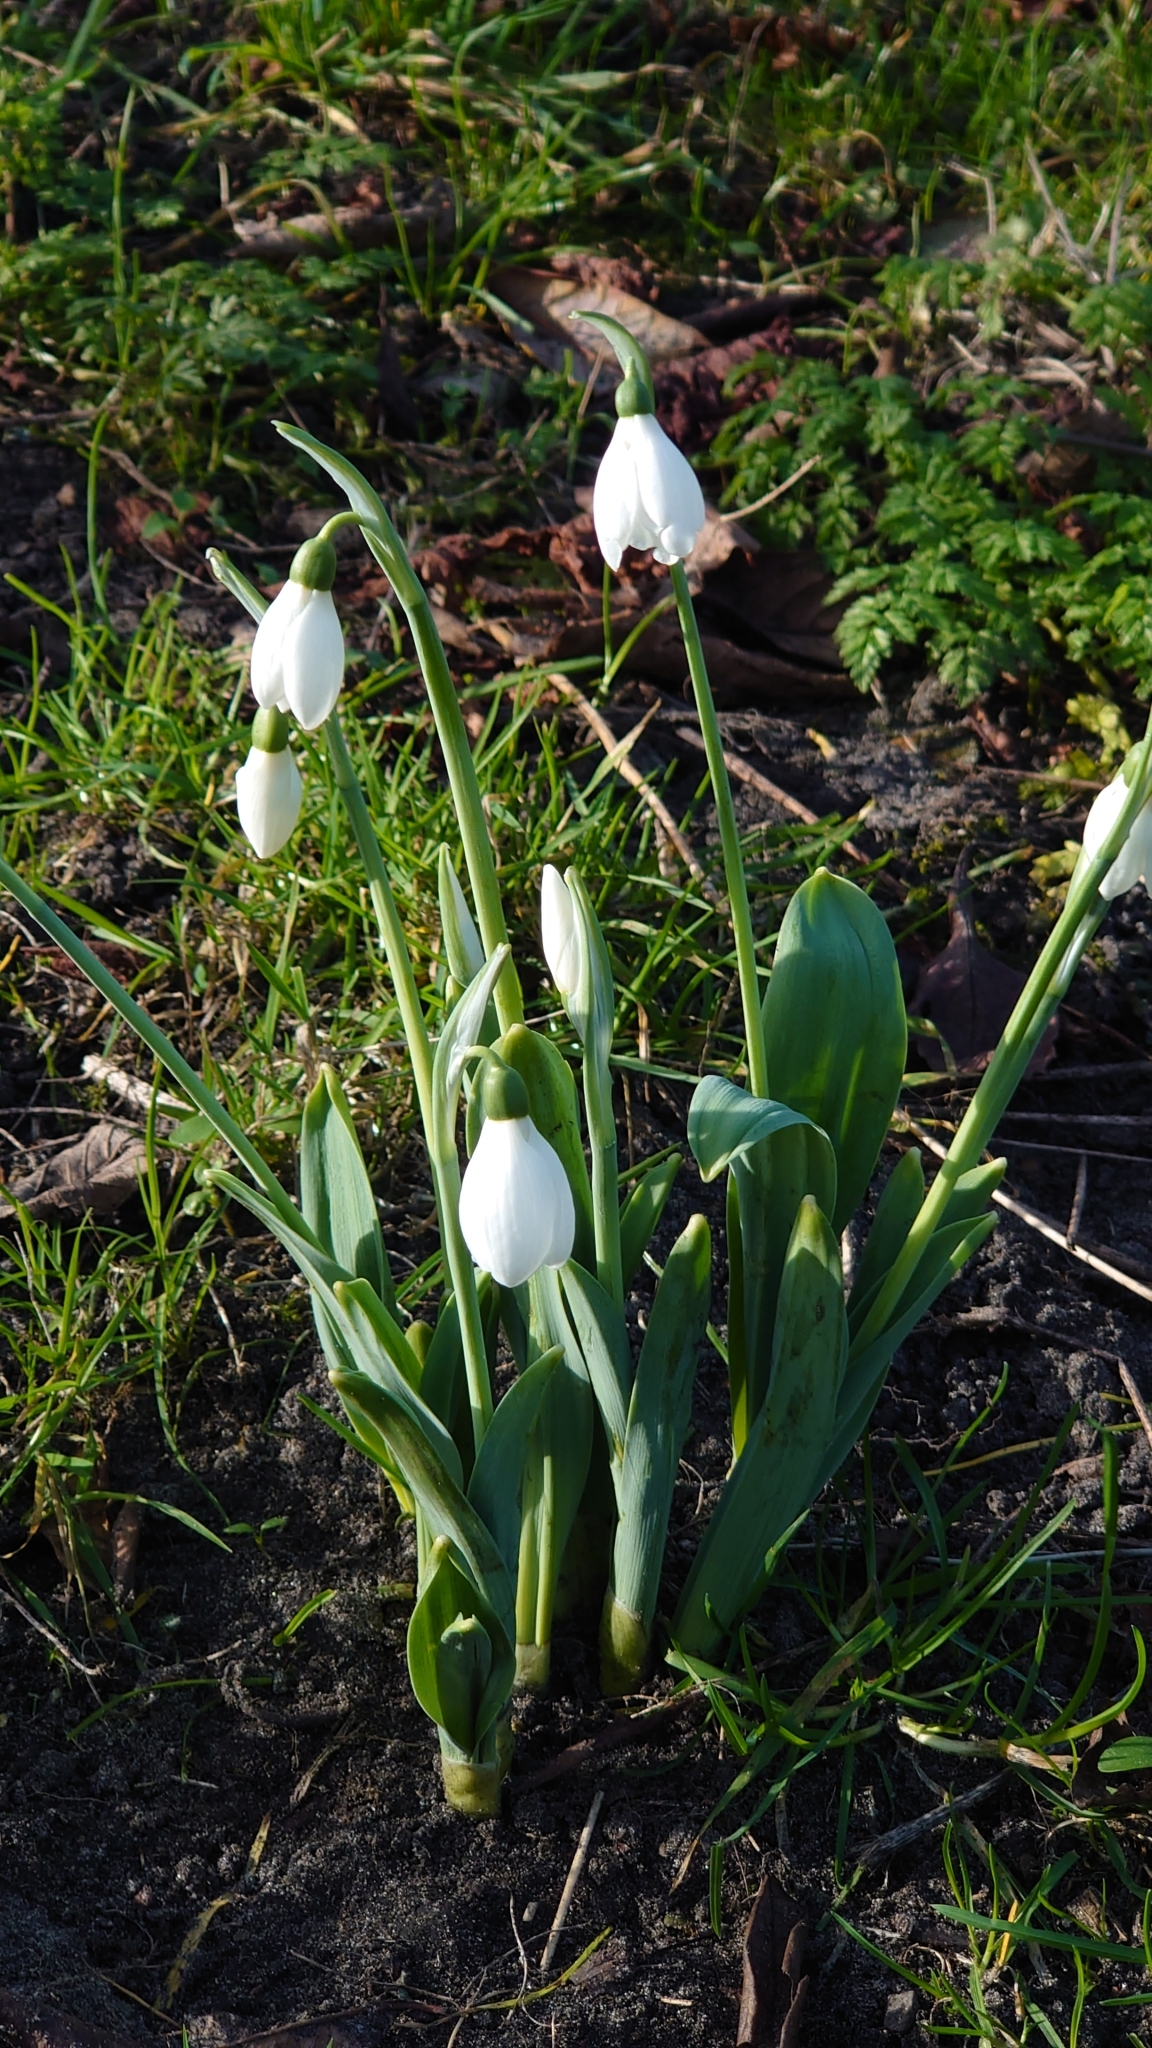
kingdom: Plantae
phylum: Tracheophyta
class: Liliopsida
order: Asparagales
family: Amaryllidaceae
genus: Galanthus
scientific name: Galanthus elwesii
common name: Greater snowdrop
